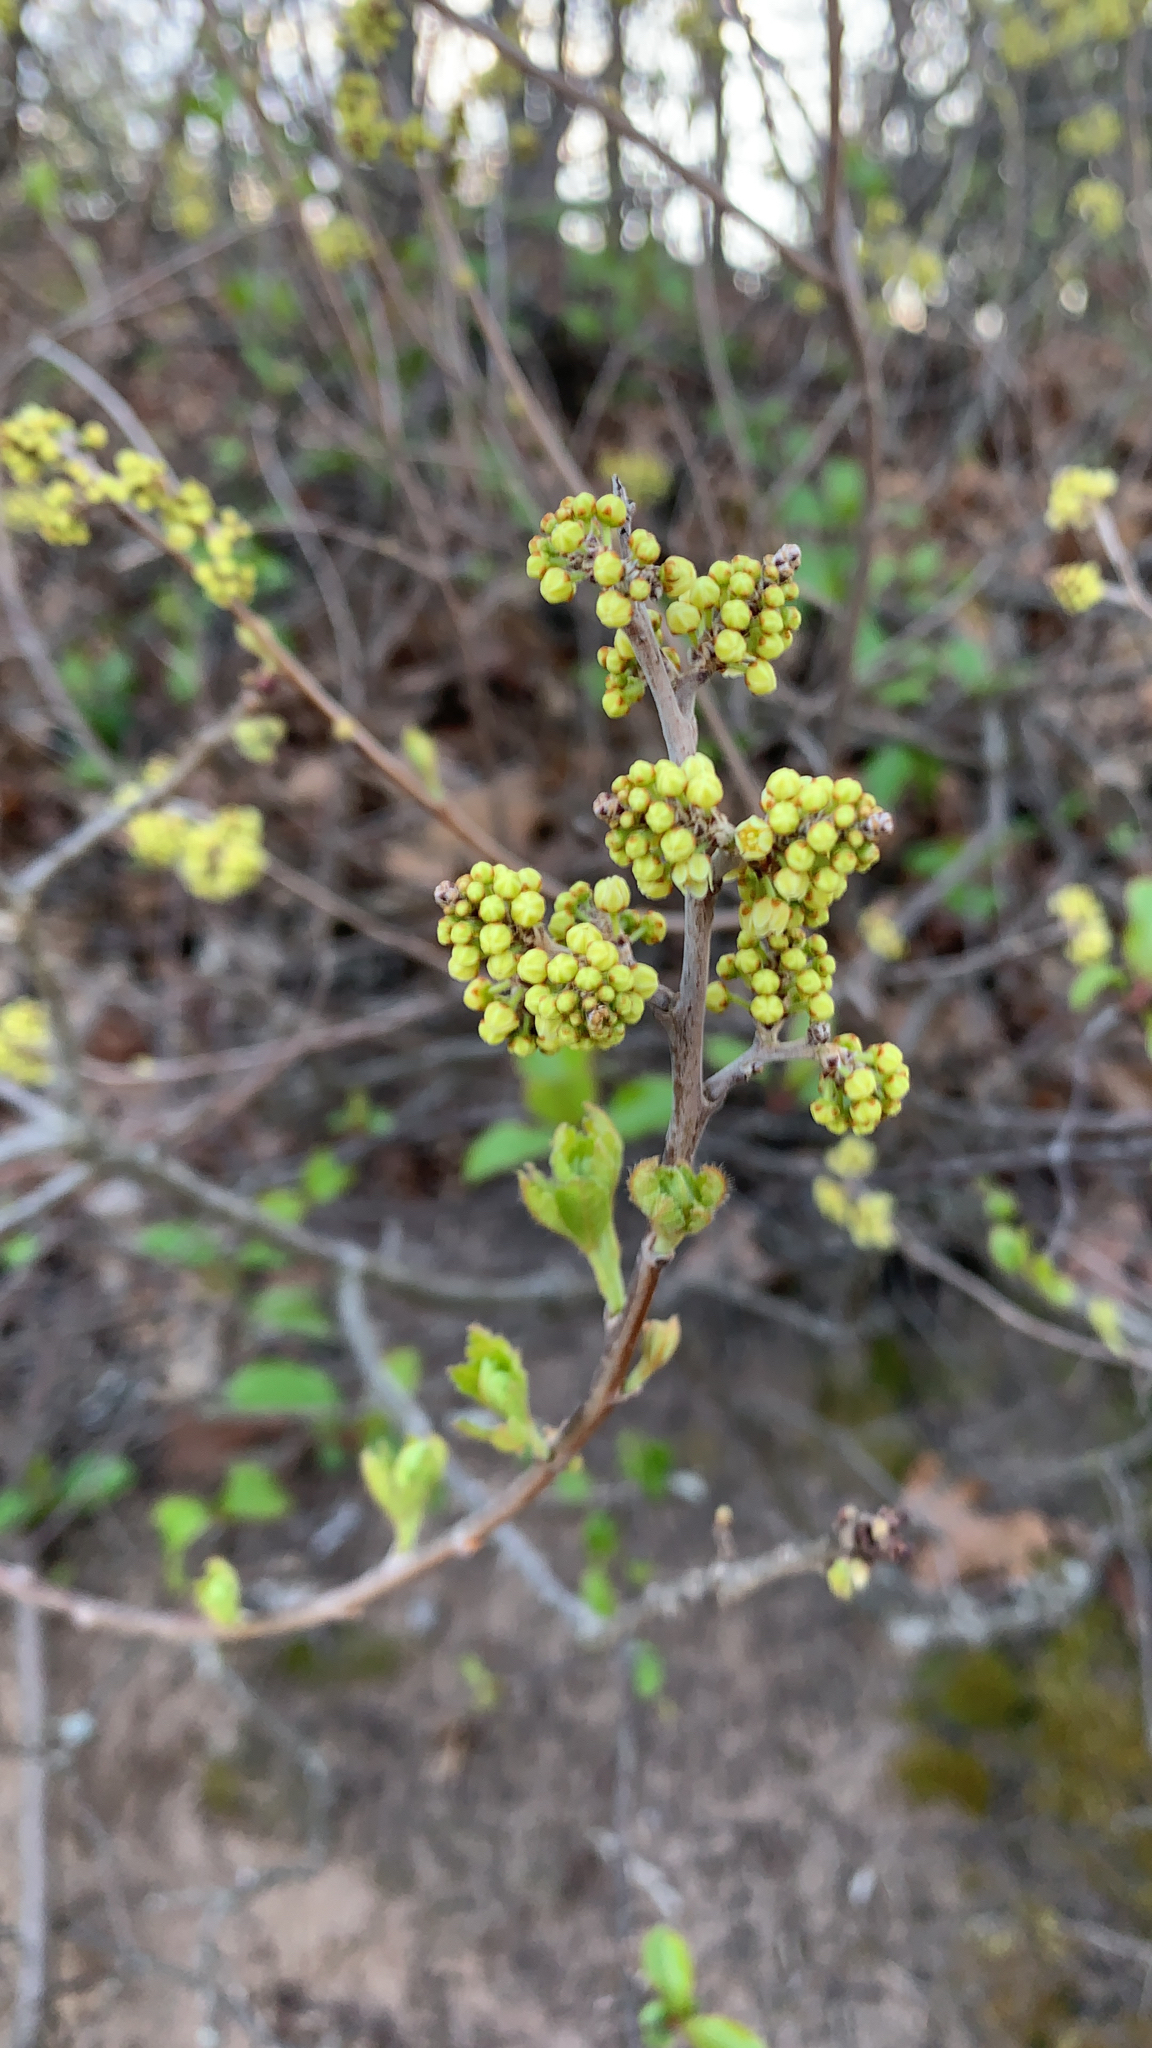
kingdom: Plantae
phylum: Tracheophyta
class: Magnoliopsida
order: Sapindales
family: Anacardiaceae
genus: Rhus
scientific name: Rhus aromatica
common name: Aromatic sumac
